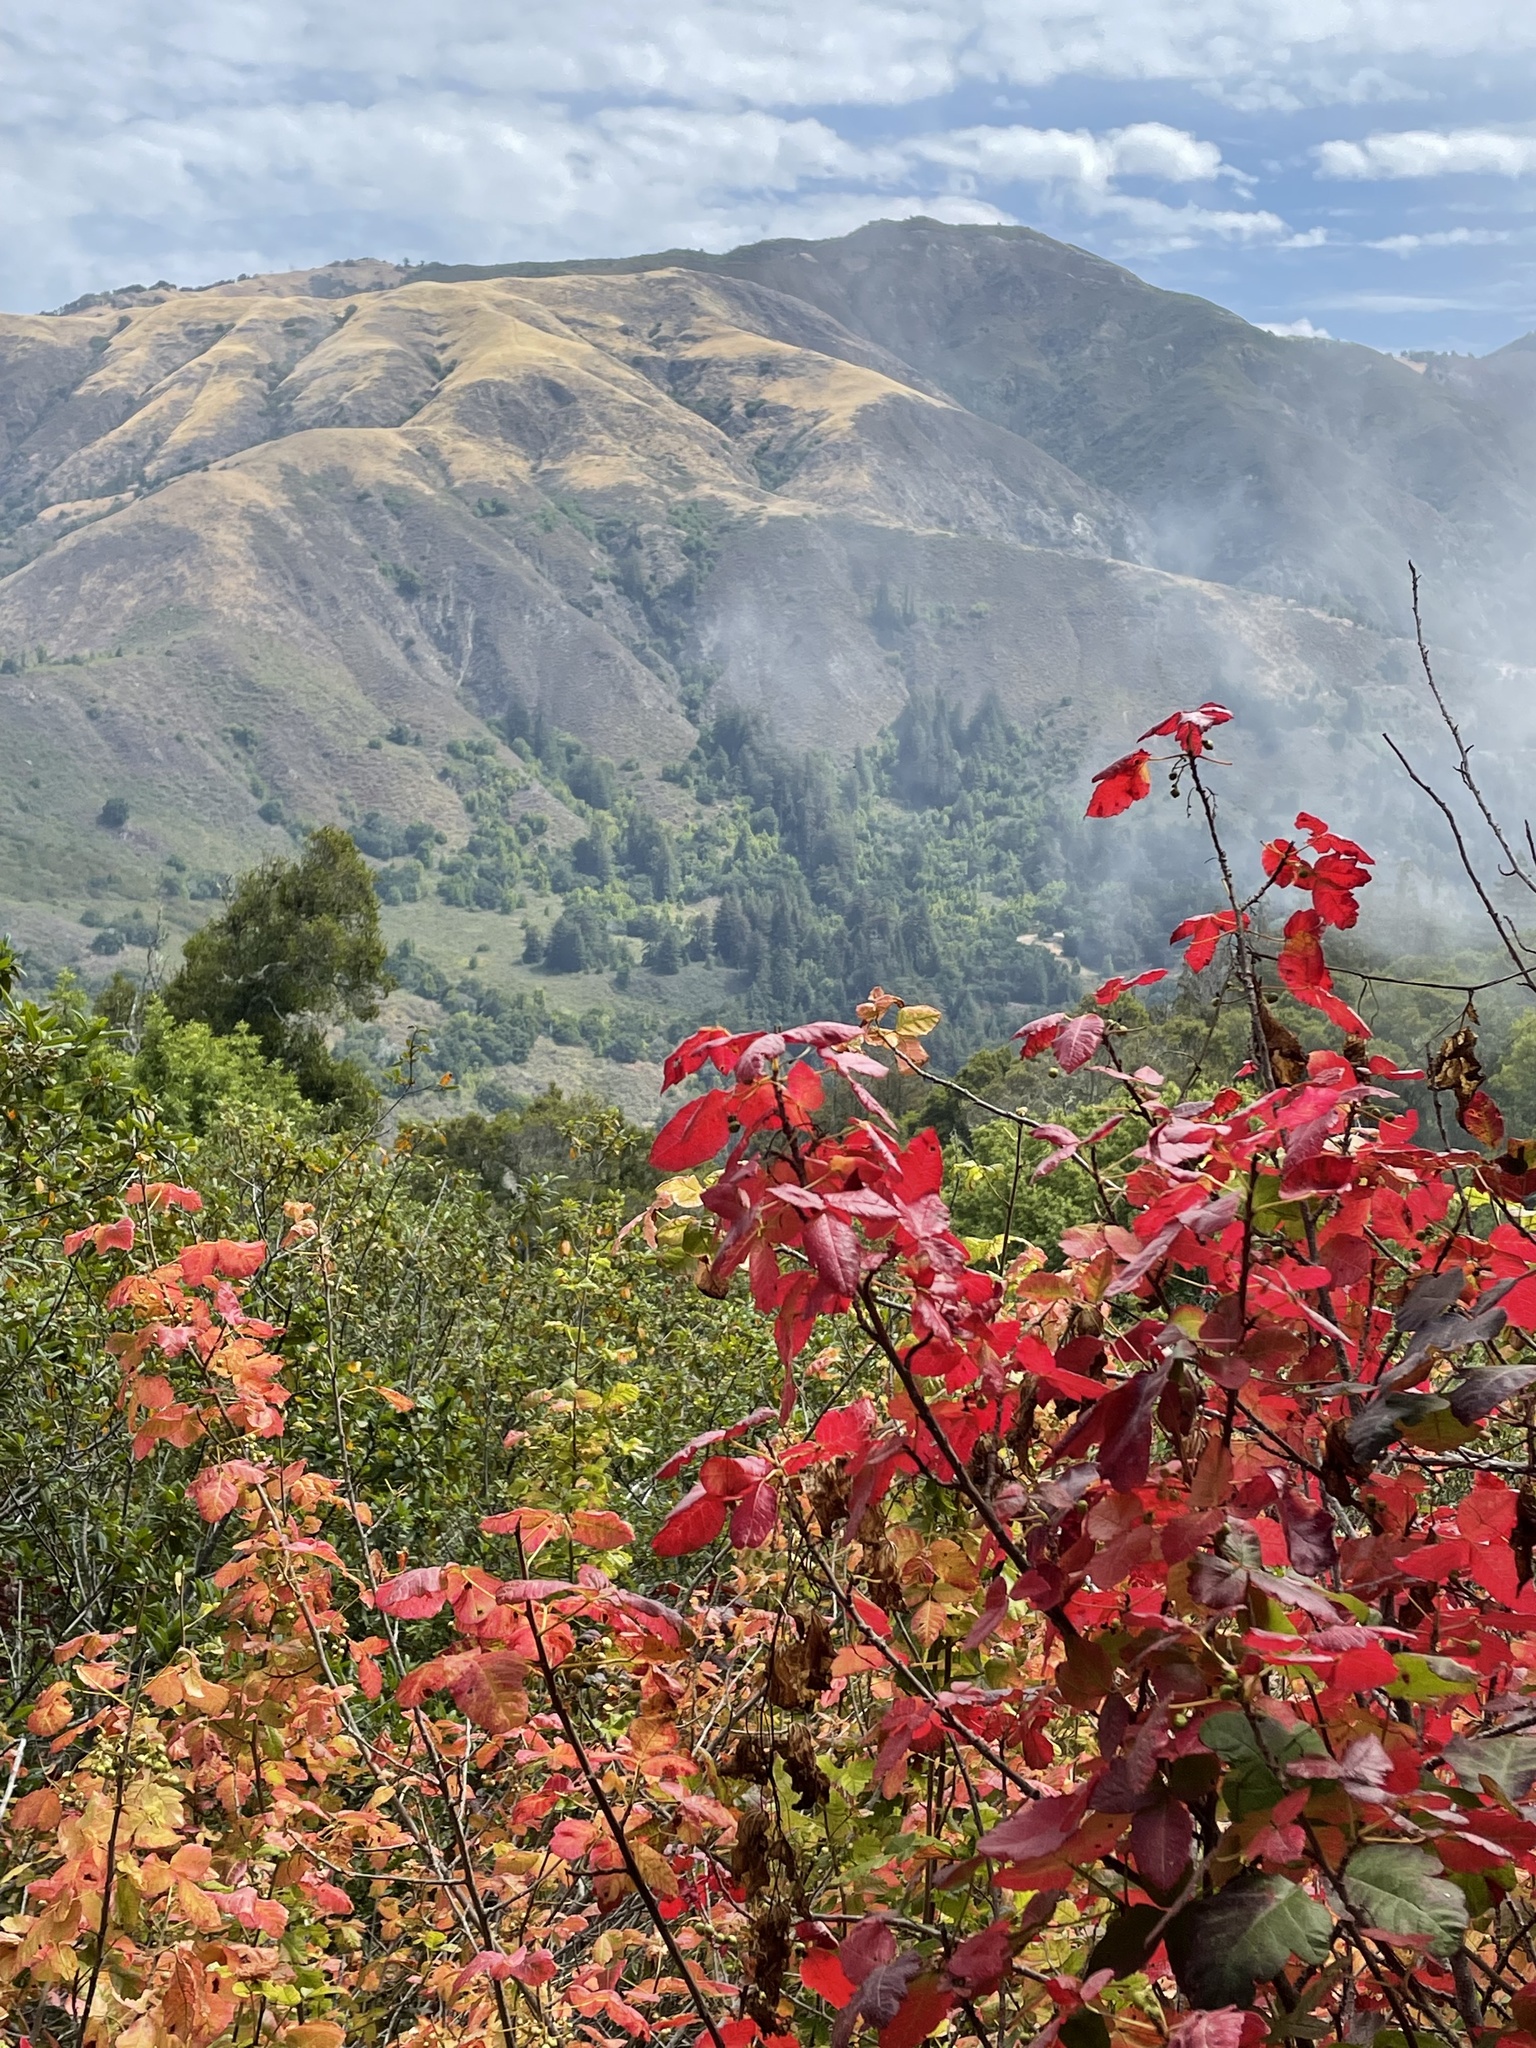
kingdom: Plantae
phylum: Tracheophyta
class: Magnoliopsida
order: Sapindales
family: Anacardiaceae
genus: Toxicodendron
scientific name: Toxicodendron diversilobum
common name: Pacific poison-oak
